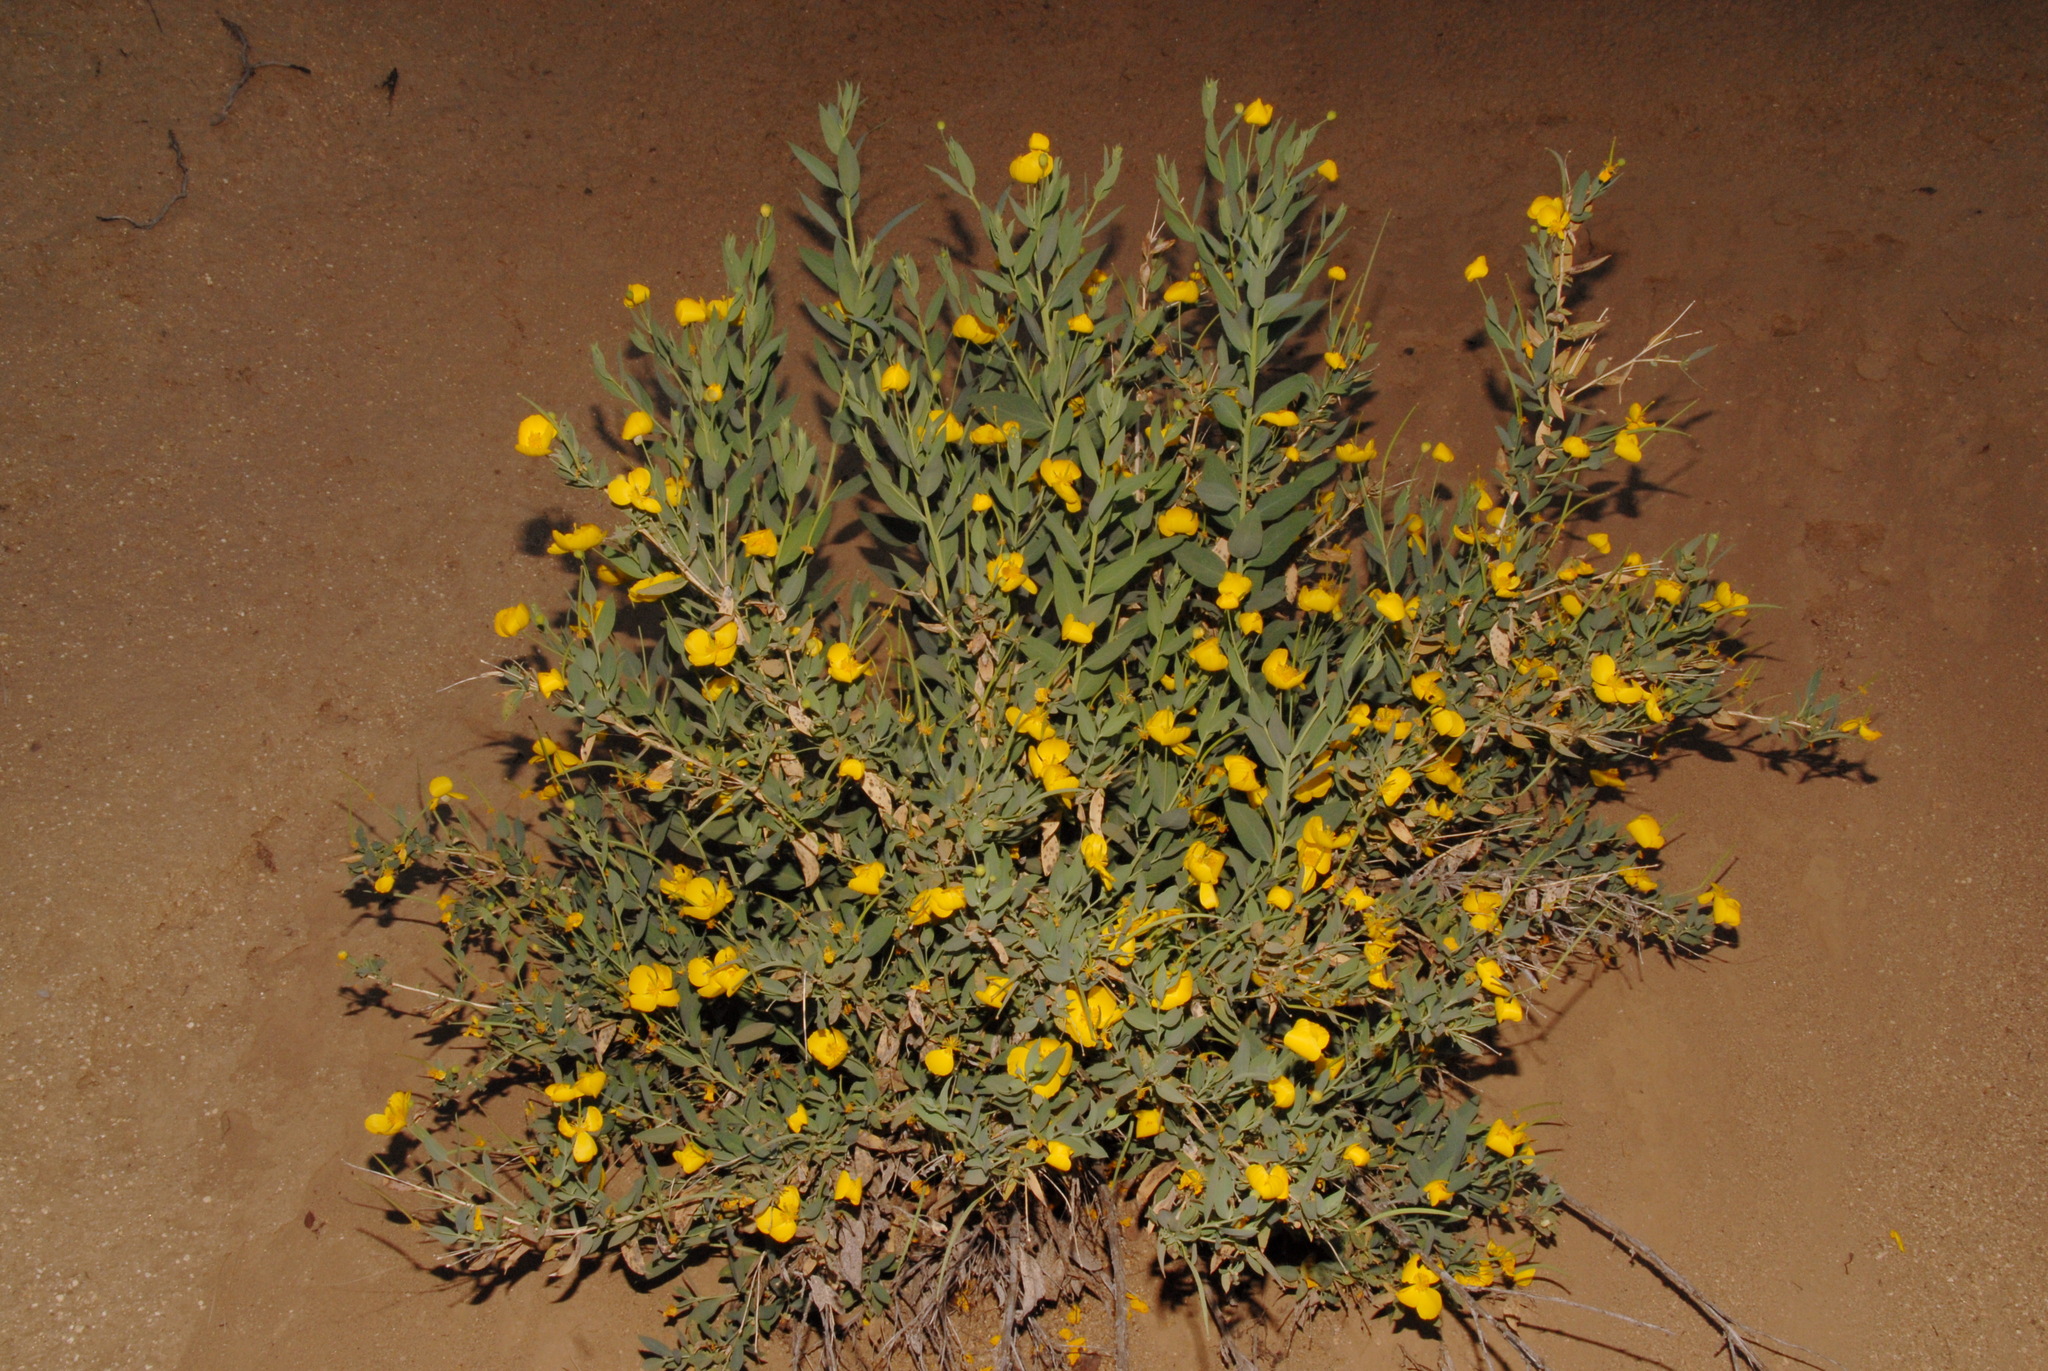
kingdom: Plantae
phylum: Tracheophyta
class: Magnoliopsida
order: Ranunculales
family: Papaveraceae
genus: Dendromecon
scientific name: Dendromecon rigida
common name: Tree poppy
